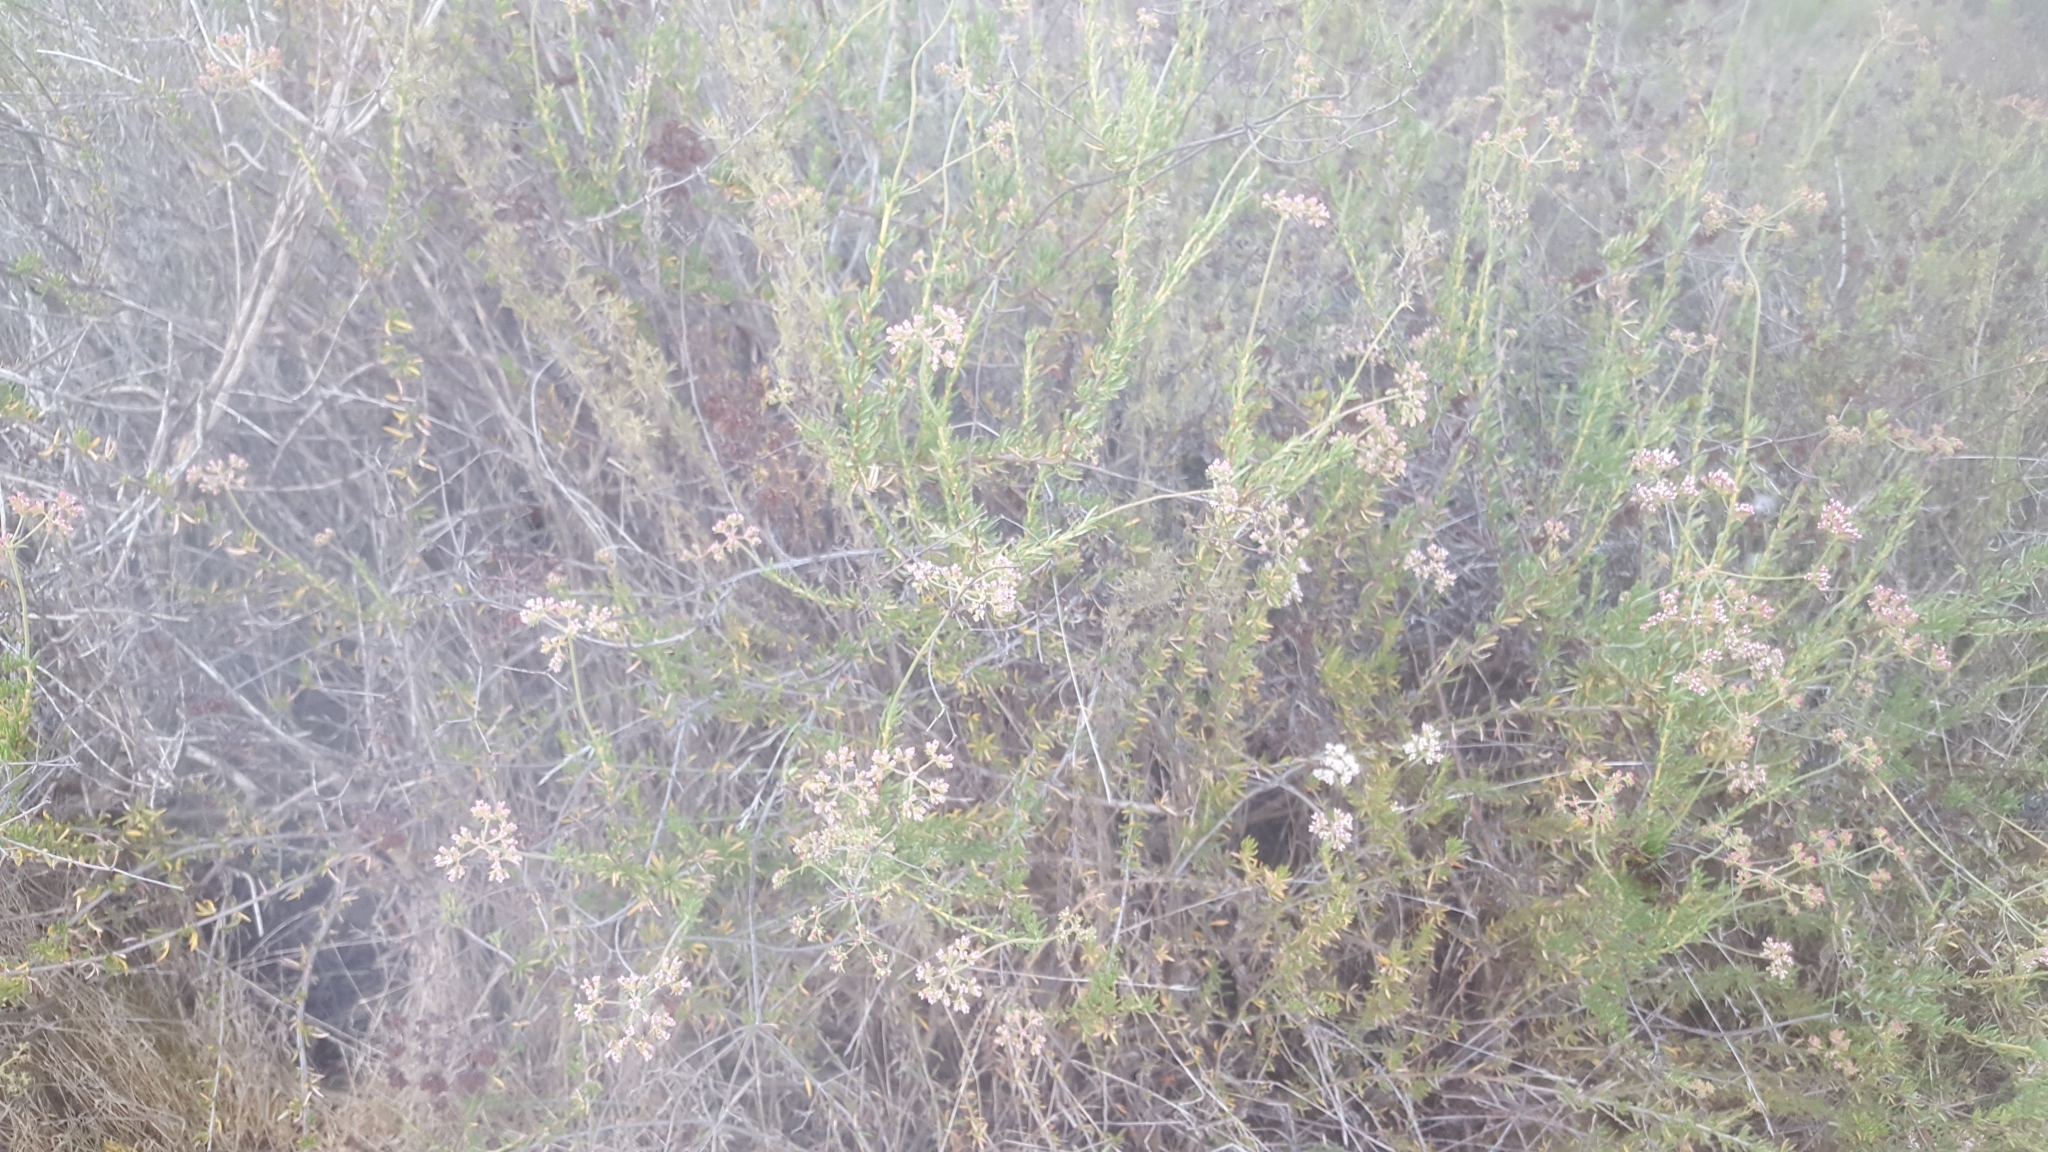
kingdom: Plantae
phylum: Tracheophyta
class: Magnoliopsida
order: Caryophyllales
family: Polygonaceae
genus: Eriogonum
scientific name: Eriogonum fasciculatum
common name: California wild buckwheat
